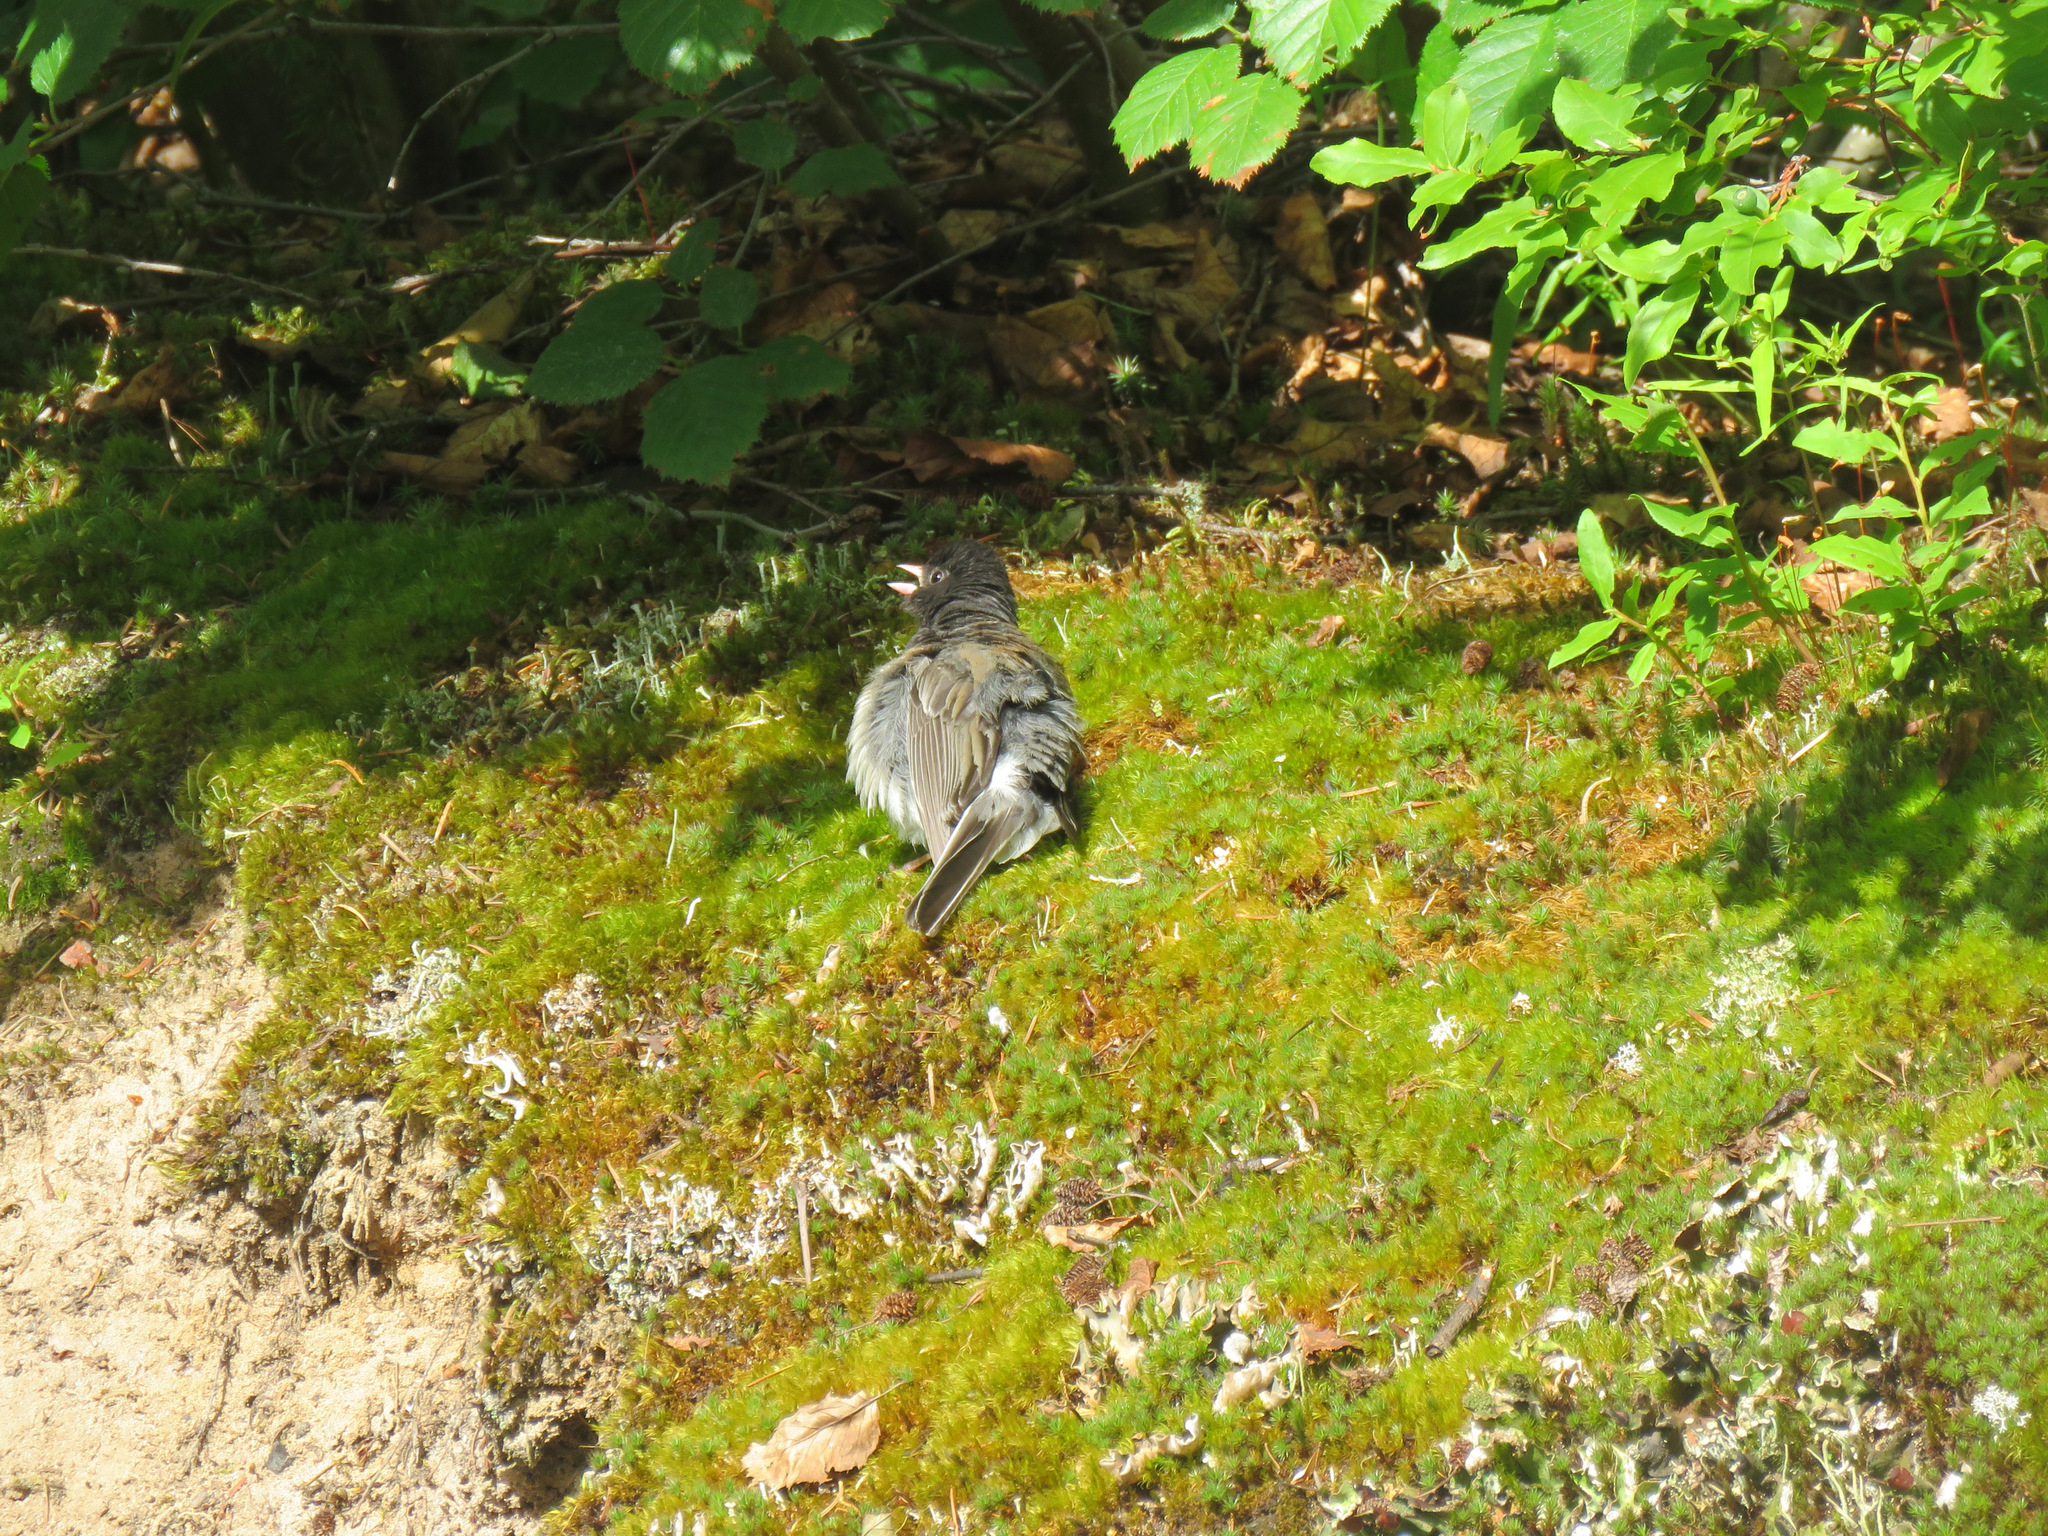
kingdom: Animalia
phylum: Chordata
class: Aves
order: Passeriformes
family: Passerellidae
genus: Junco
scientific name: Junco hyemalis
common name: Dark-eyed junco
